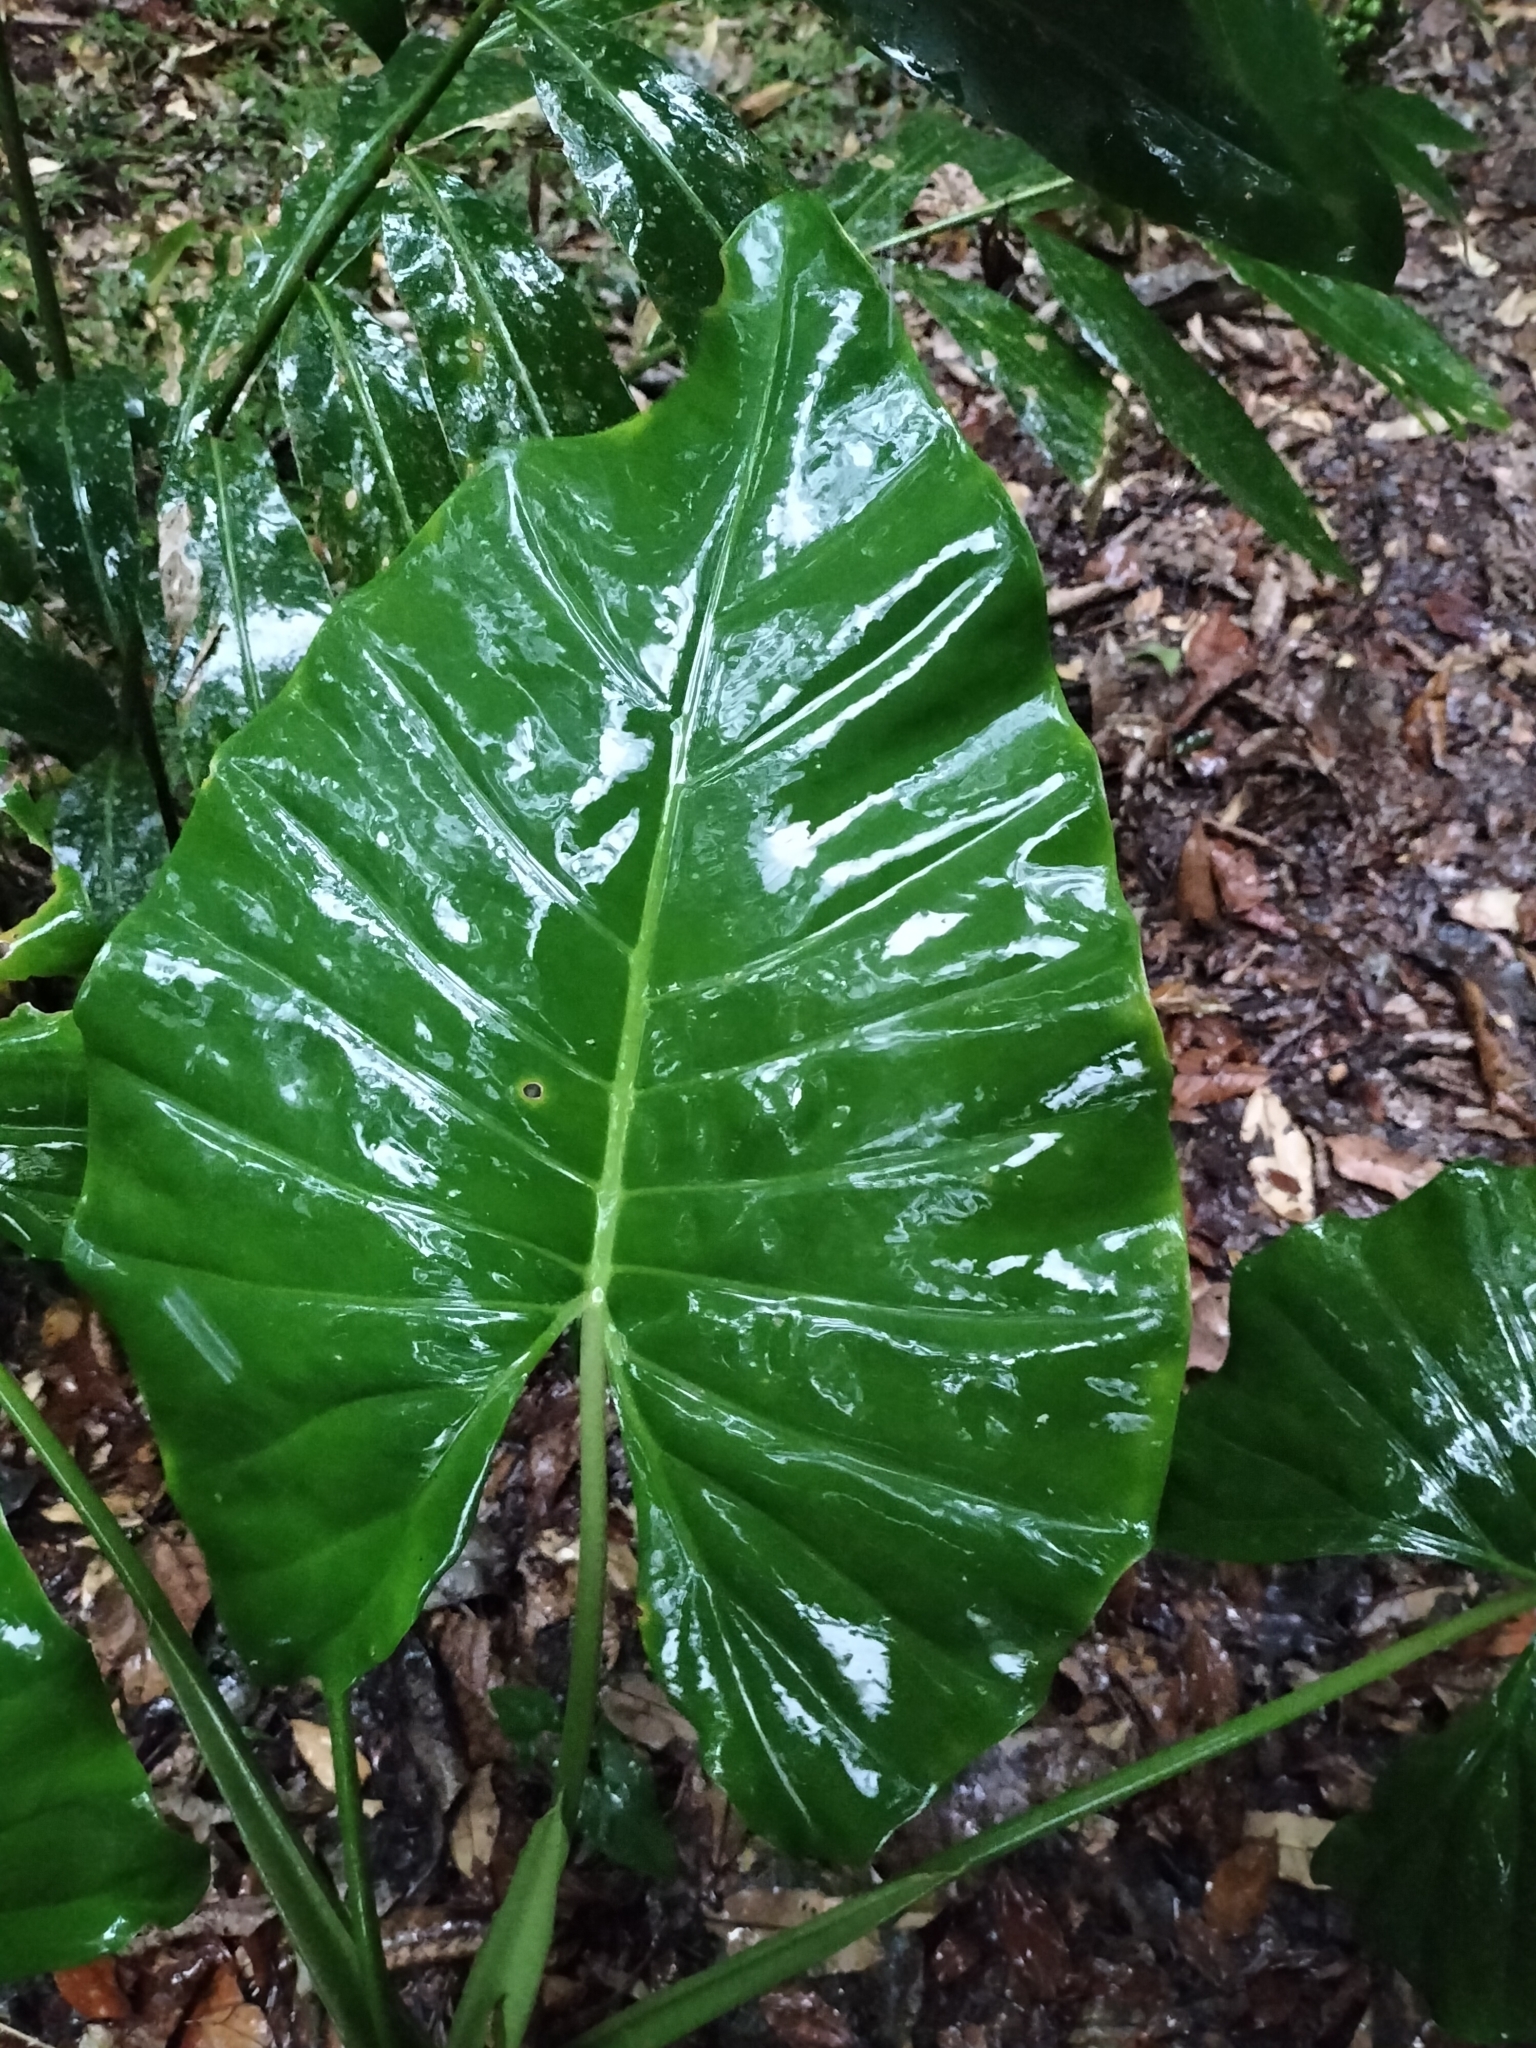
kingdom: Plantae
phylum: Tracheophyta
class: Liliopsida
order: Alismatales
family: Araceae
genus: Alocasia
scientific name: Alocasia brisbanensis
